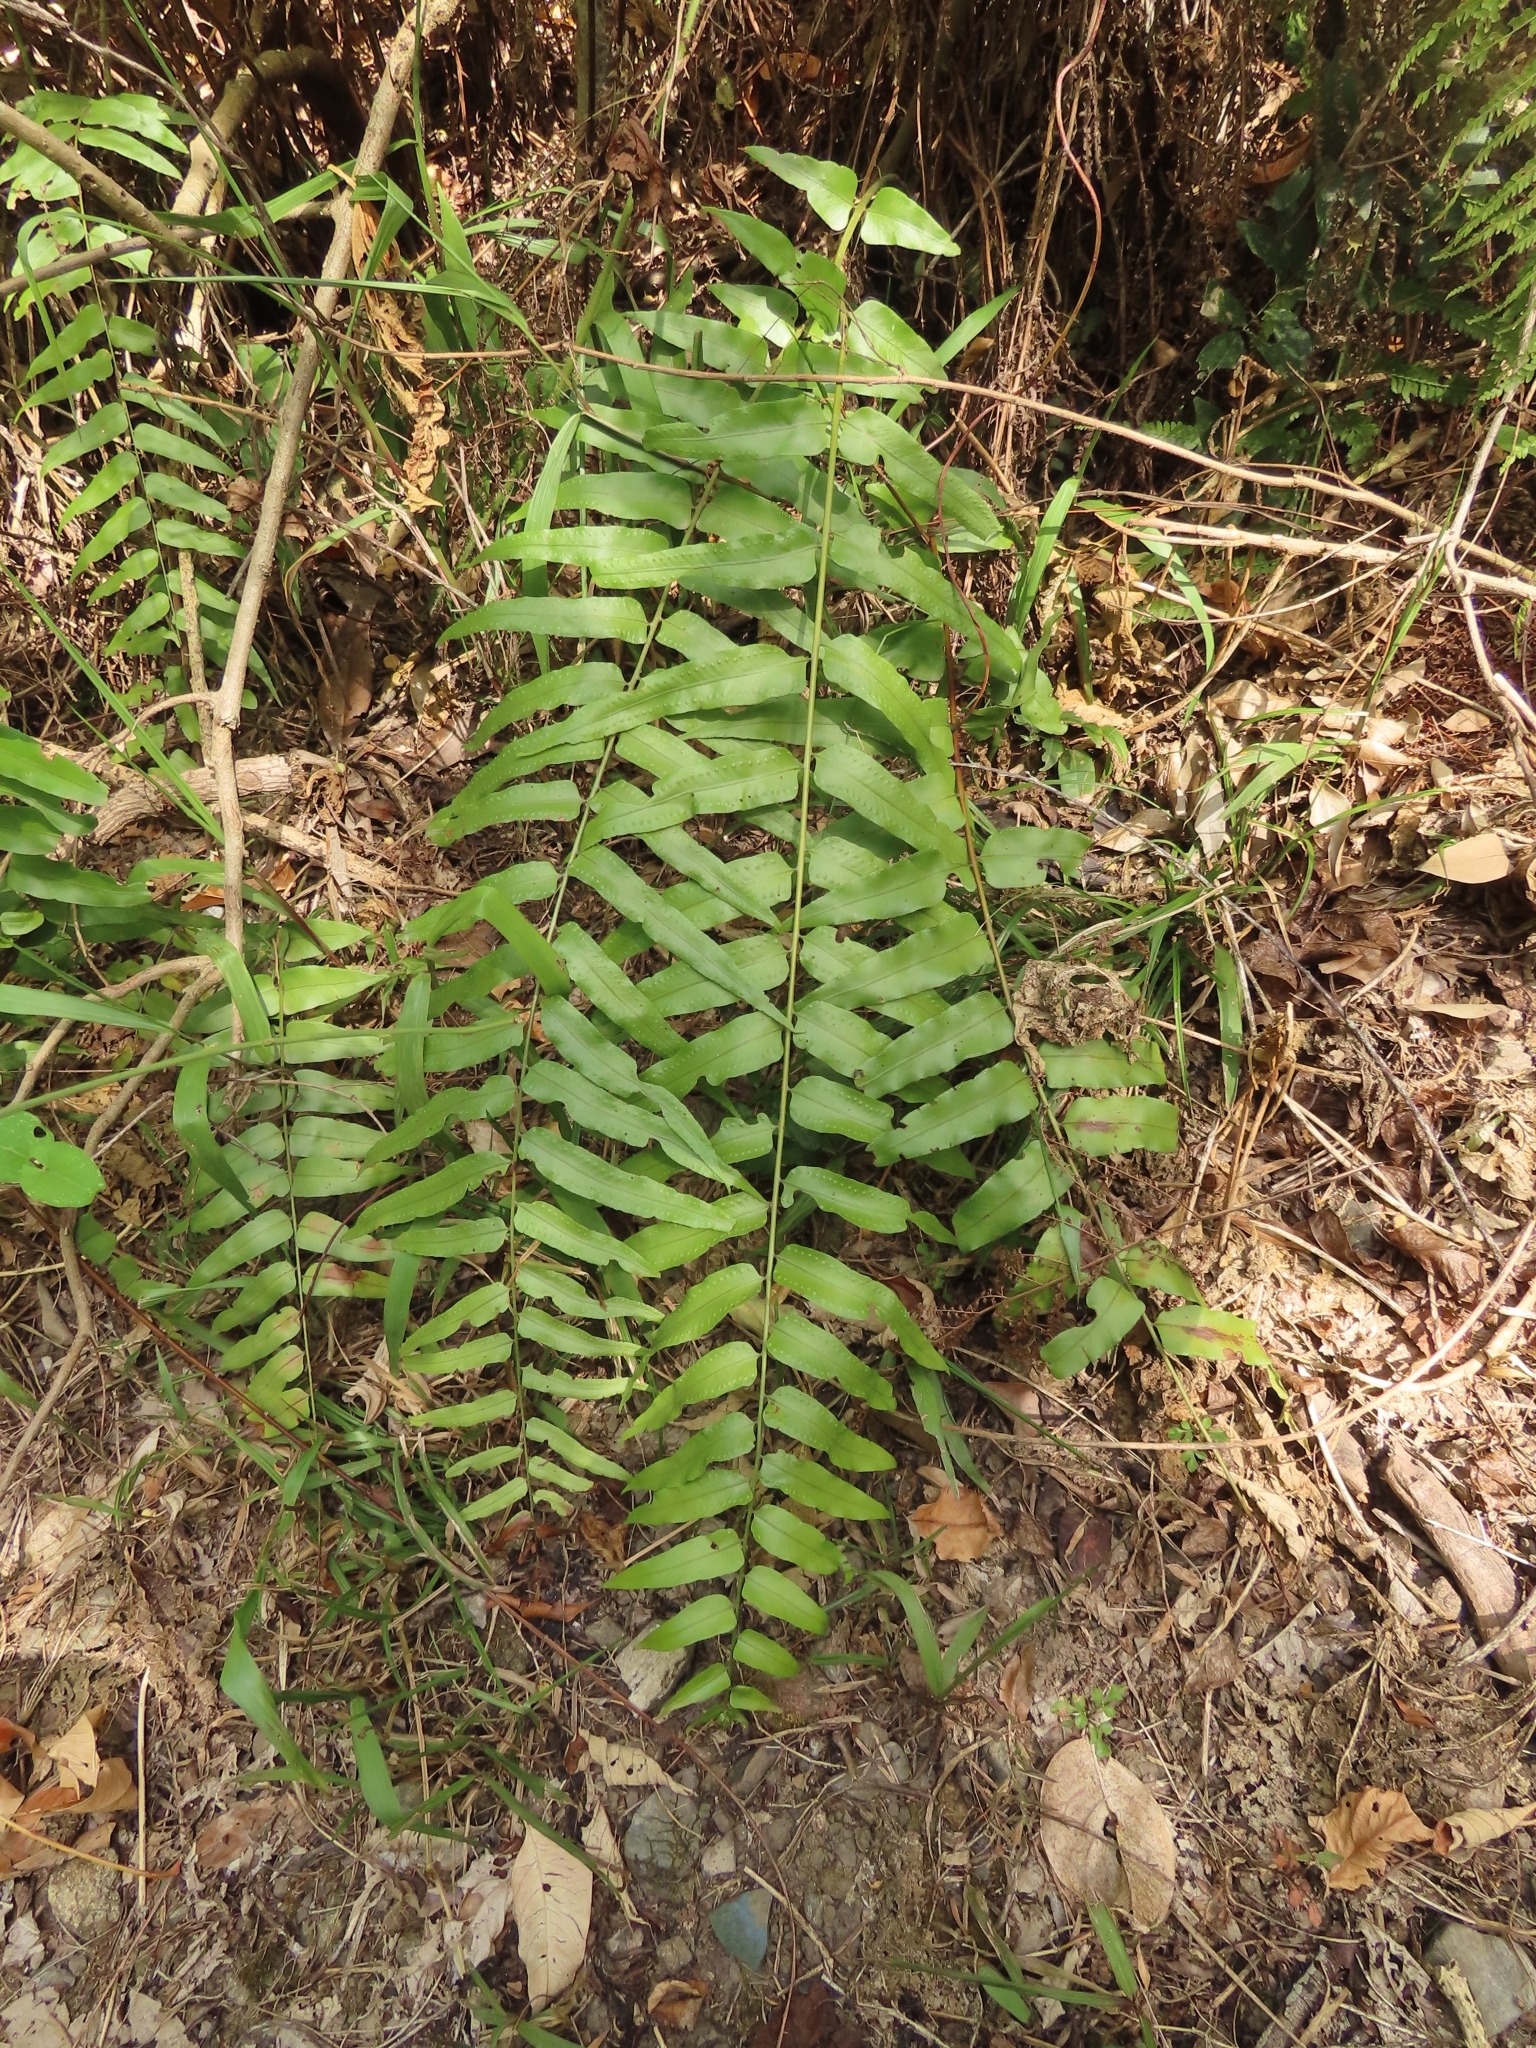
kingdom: Plantae
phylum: Tracheophyta
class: Polypodiopsida
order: Polypodiales
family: Nephrolepidaceae
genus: Nephrolepis
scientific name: Nephrolepis biserrata
